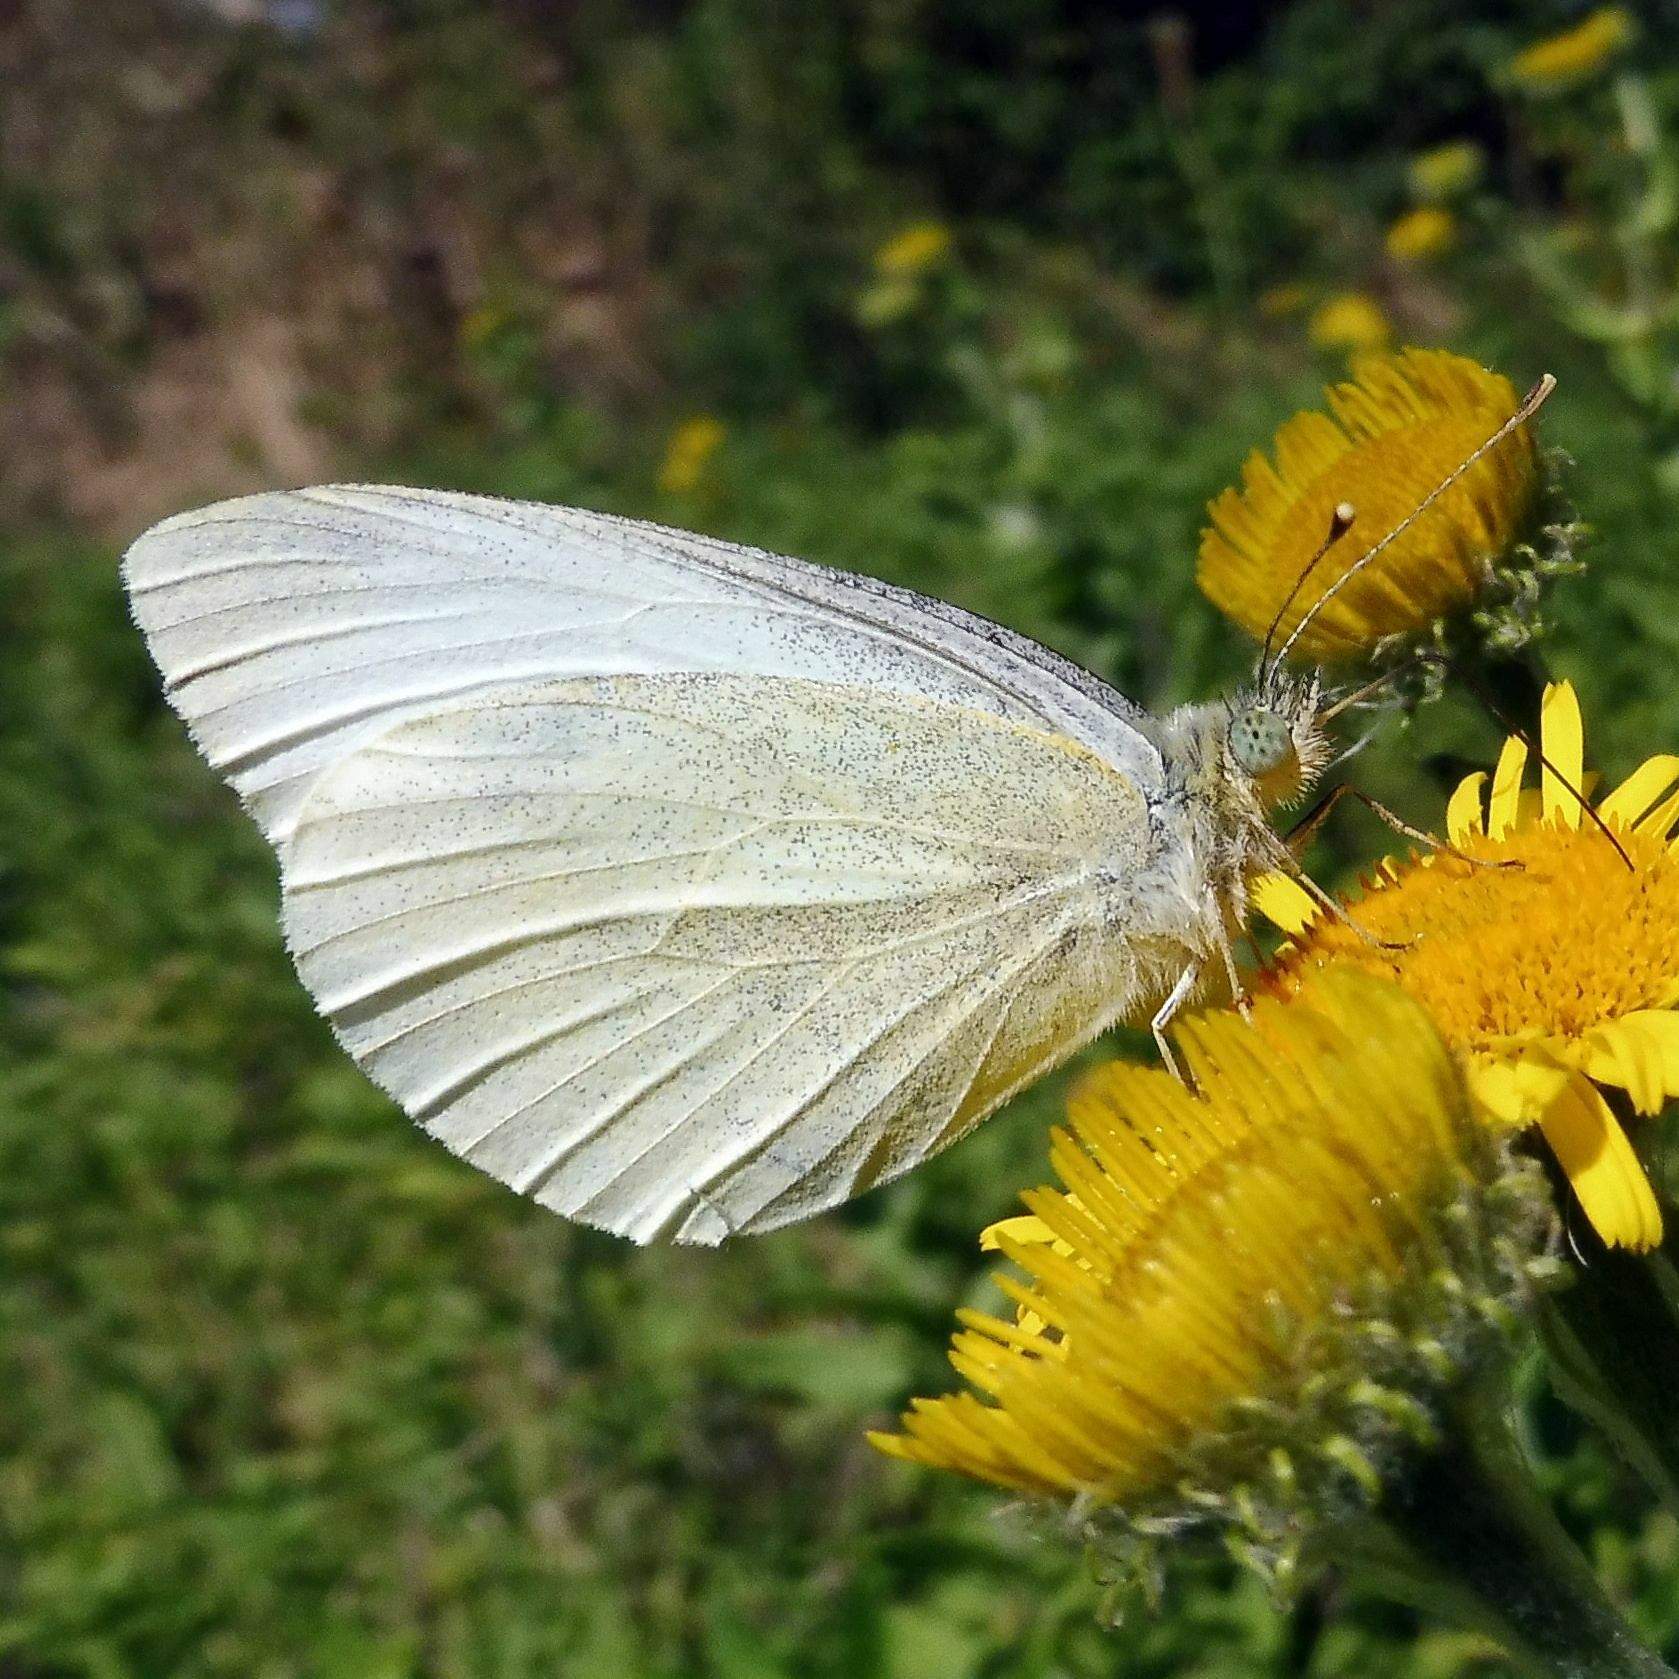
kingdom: Animalia
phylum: Arthropoda
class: Insecta
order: Lepidoptera
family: Pieridae
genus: Pieris
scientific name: Pieris rapae
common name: Small white
